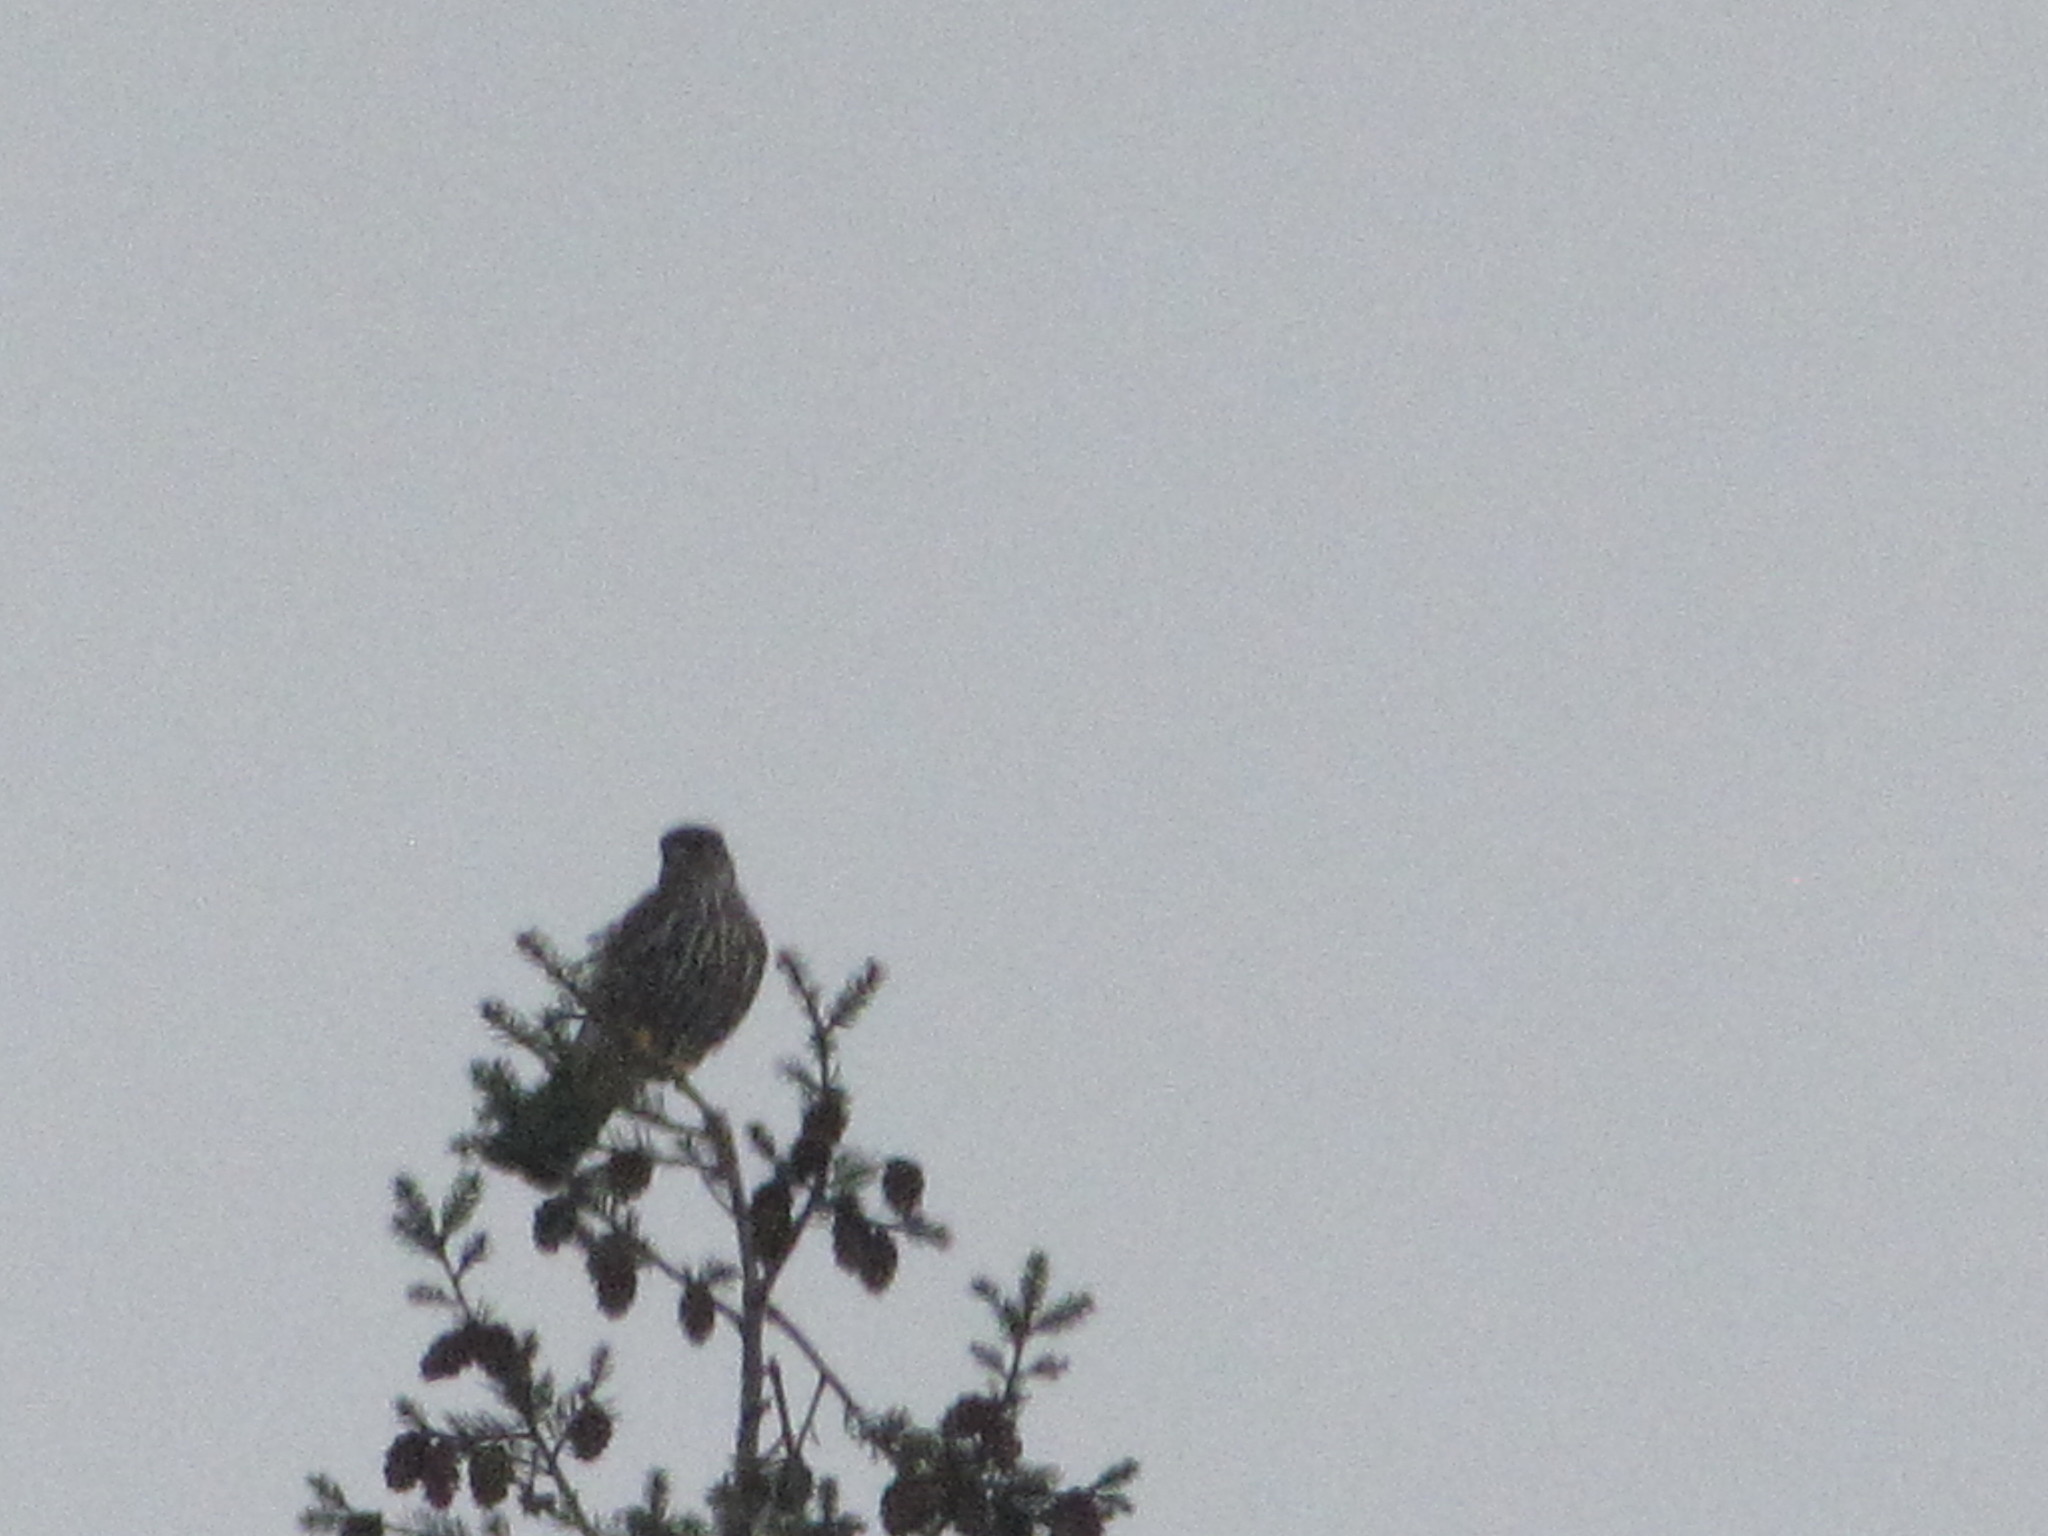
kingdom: Animalia
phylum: Chordata
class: Aves
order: Falconiformes
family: Falconidae
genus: Falco
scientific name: Falco columbarius
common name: Merlin
